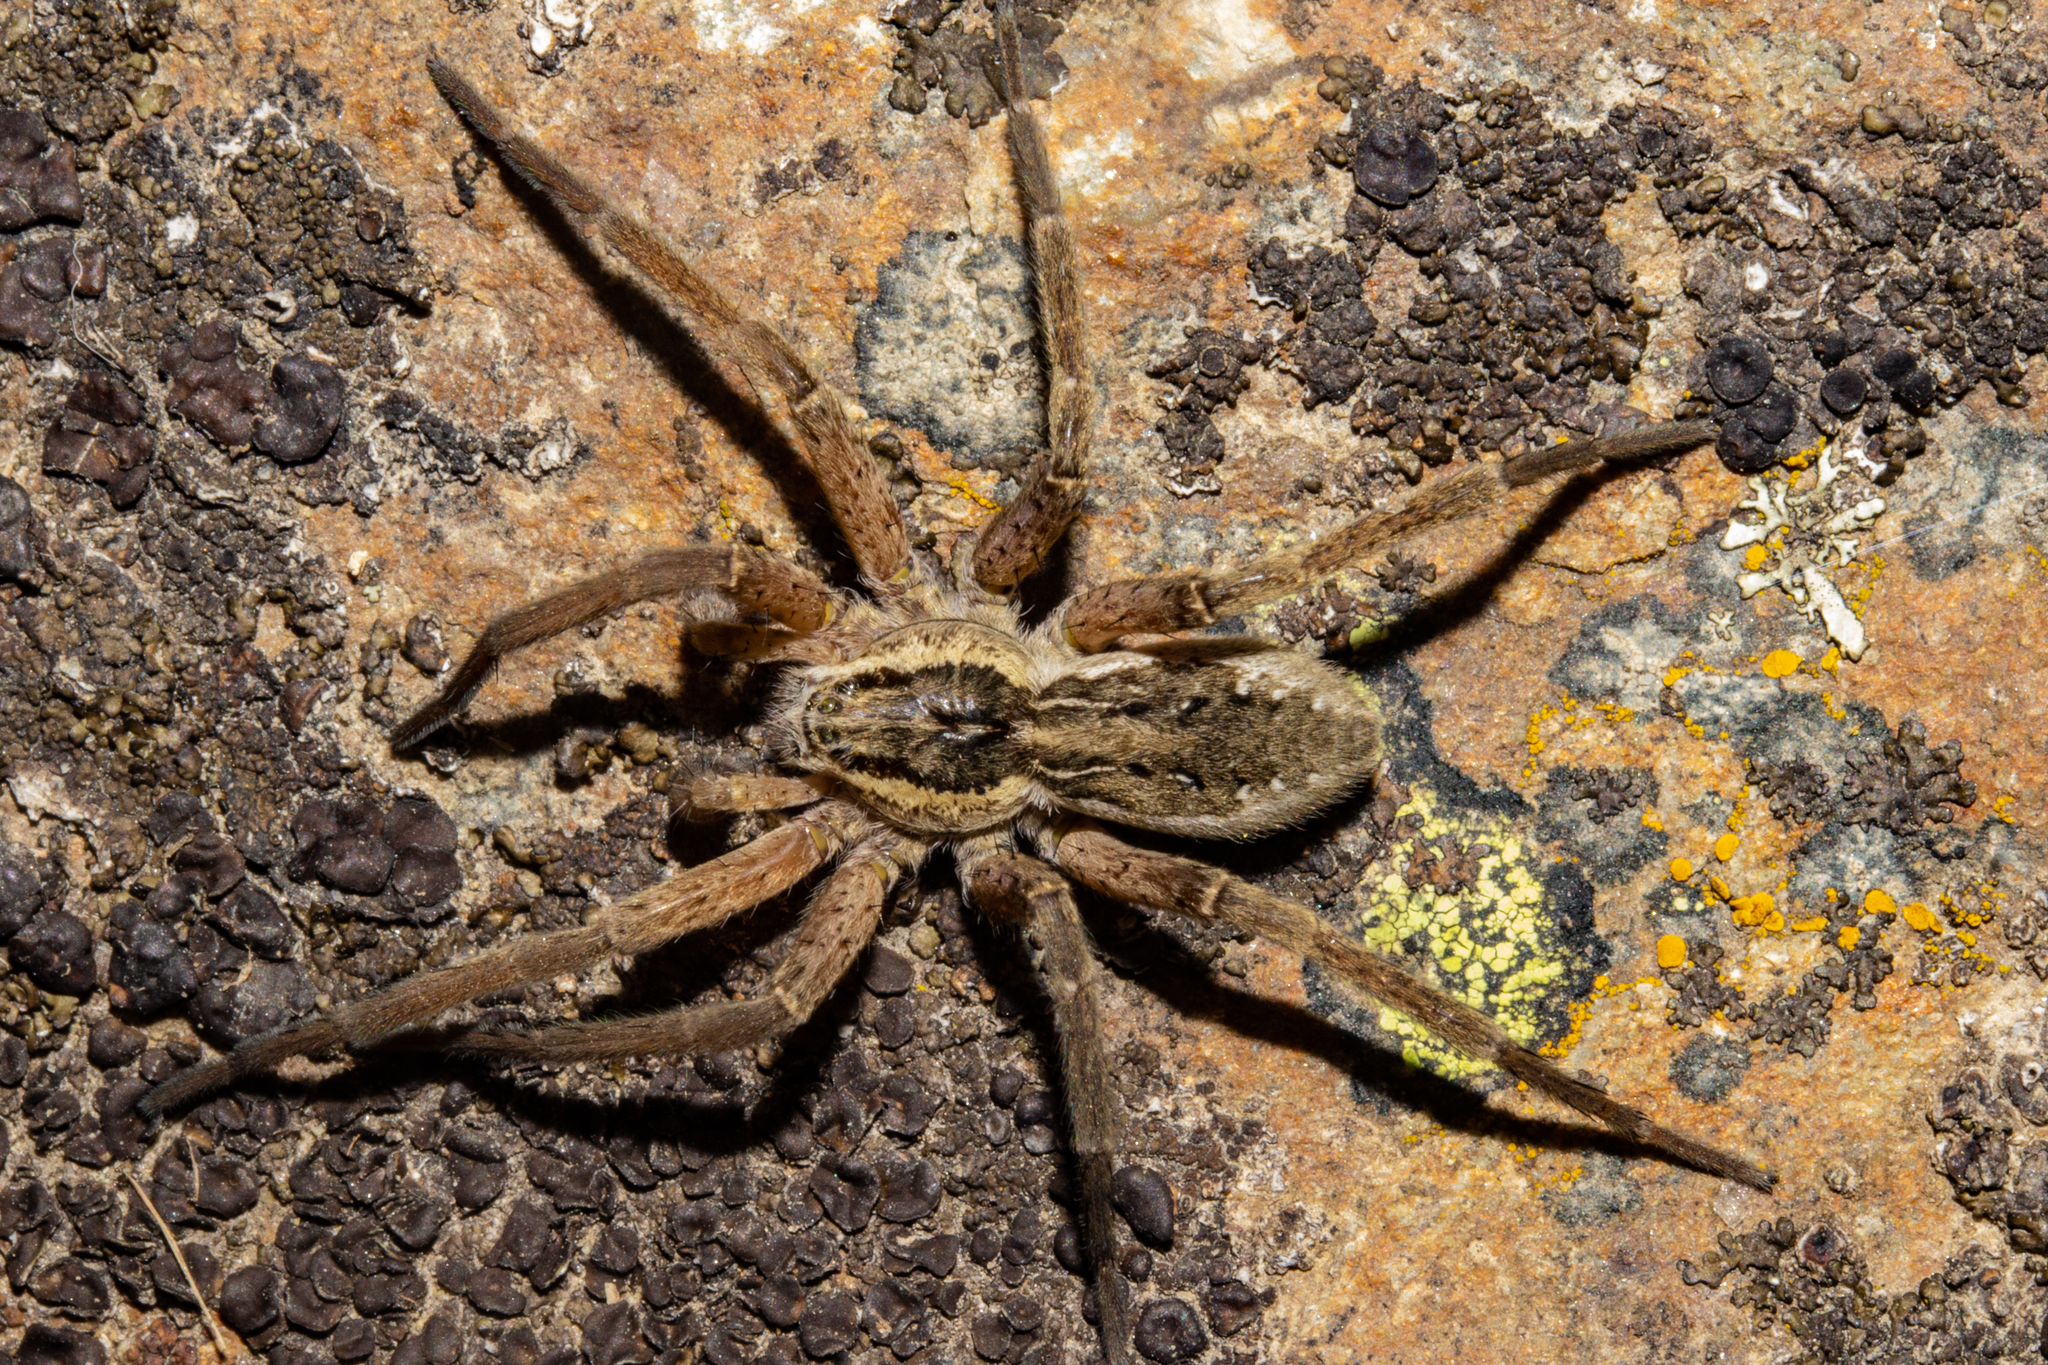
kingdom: Animalia
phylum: Arthropoda
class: Arachnida
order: Araneae
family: Pisauridae
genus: Dolomedes
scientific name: Dolomedes dondalei
